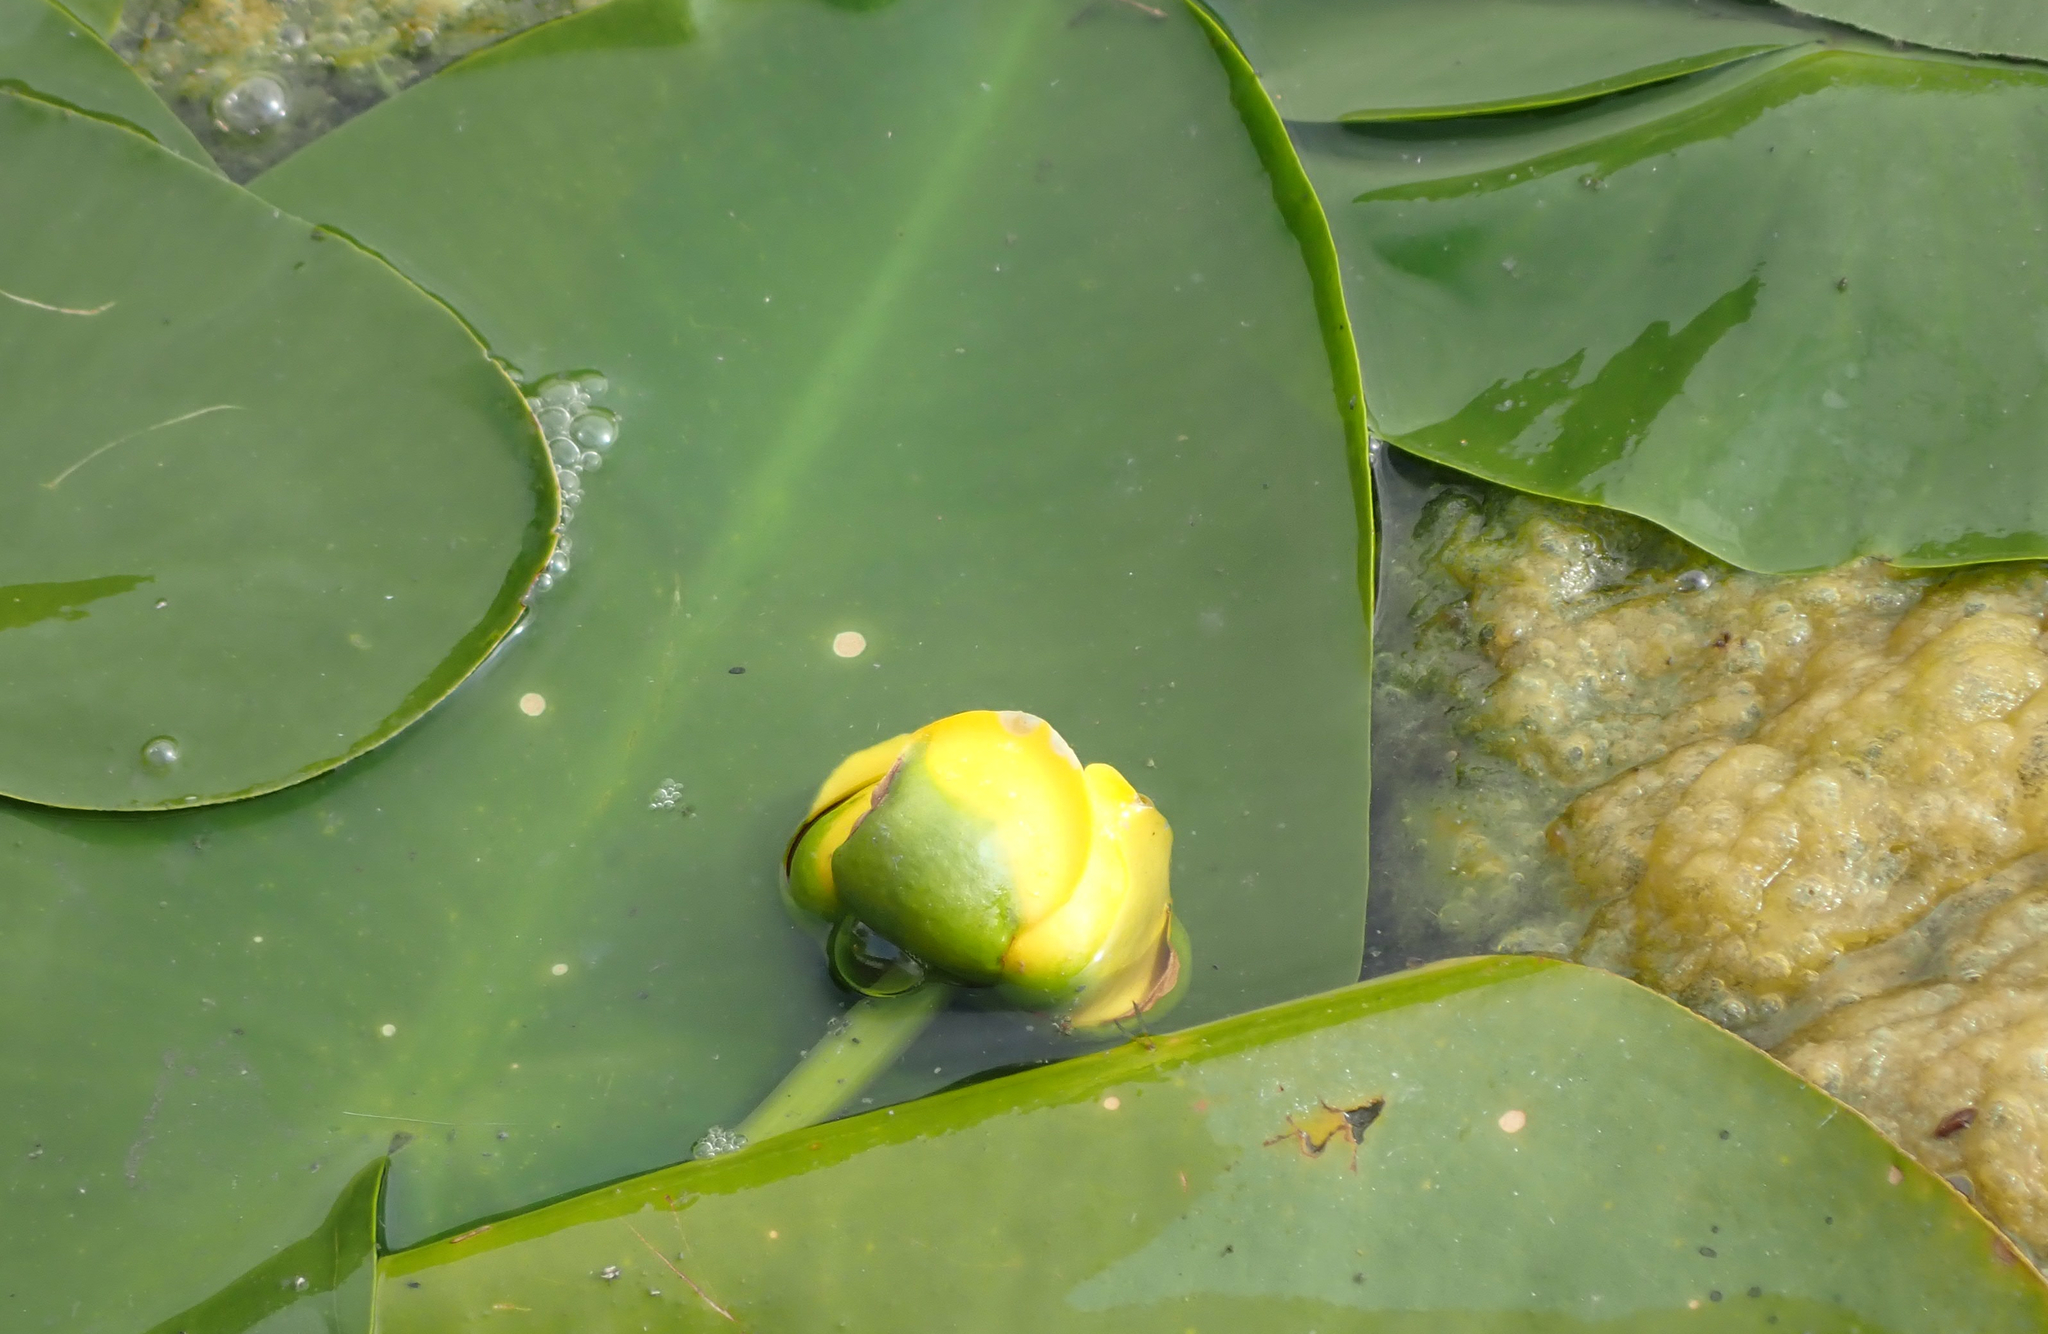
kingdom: Plantae
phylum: Tracheophyta
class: Magnoliopsida
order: Nymphaeales
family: Nymphaeaceae
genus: Nuphar
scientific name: Nuphar variegata
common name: Beaver-root
